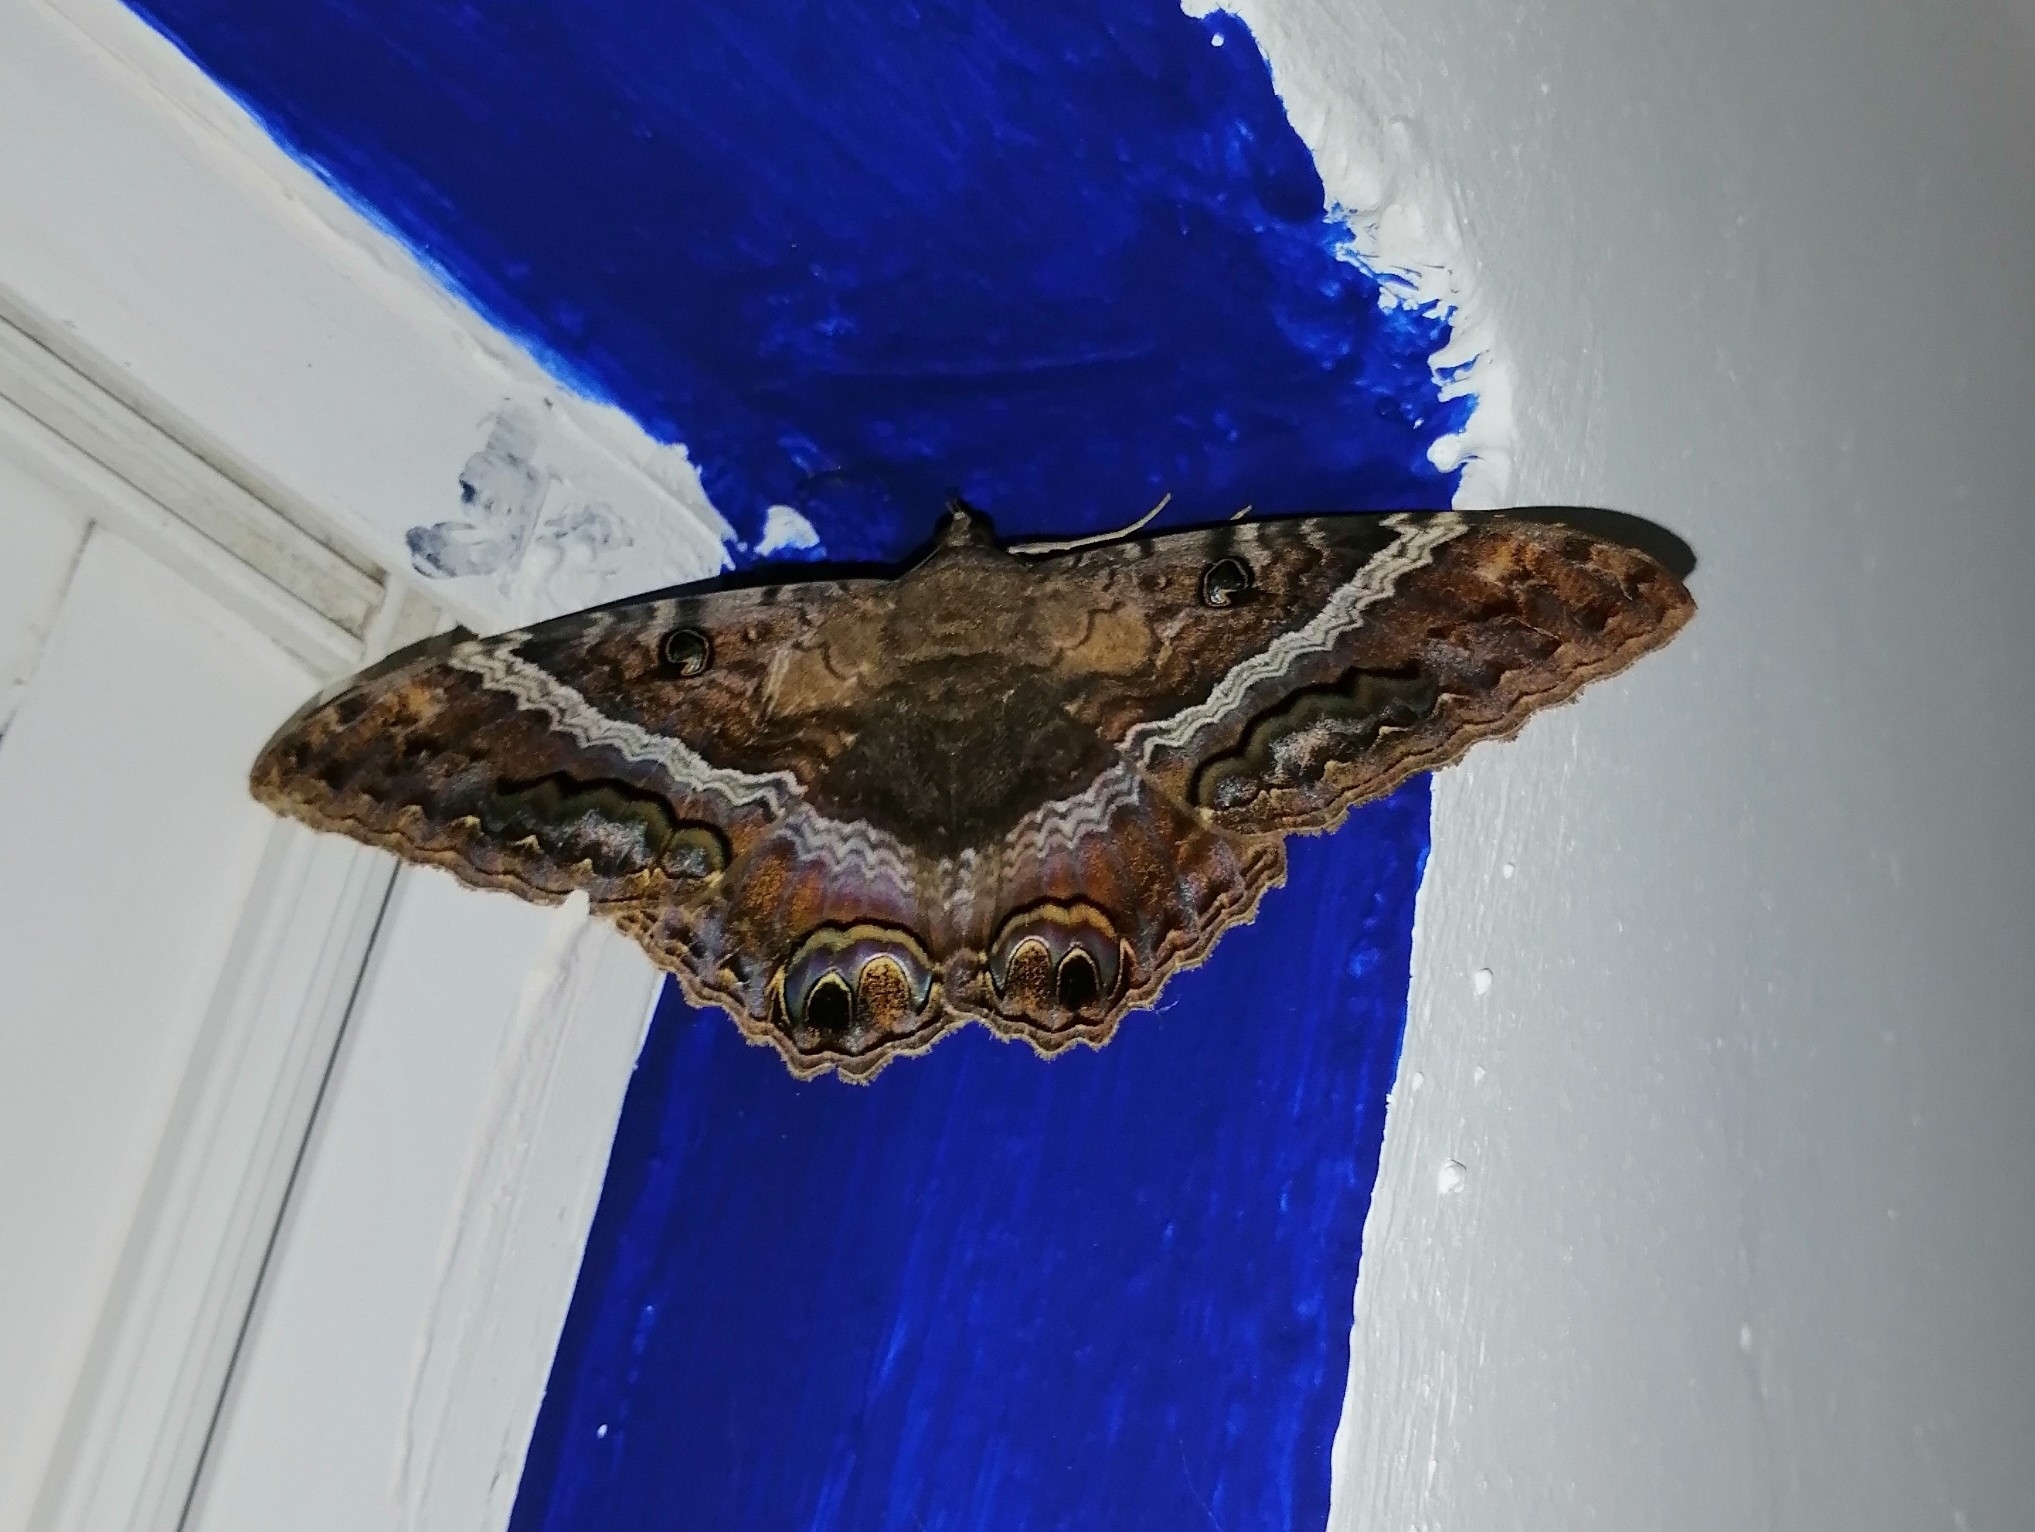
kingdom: Animalia
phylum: Arthropoda
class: Insecta
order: Lepidoptera
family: Erebidae
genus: Ascalapha
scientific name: Ascalapha odorata
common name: Black witch
